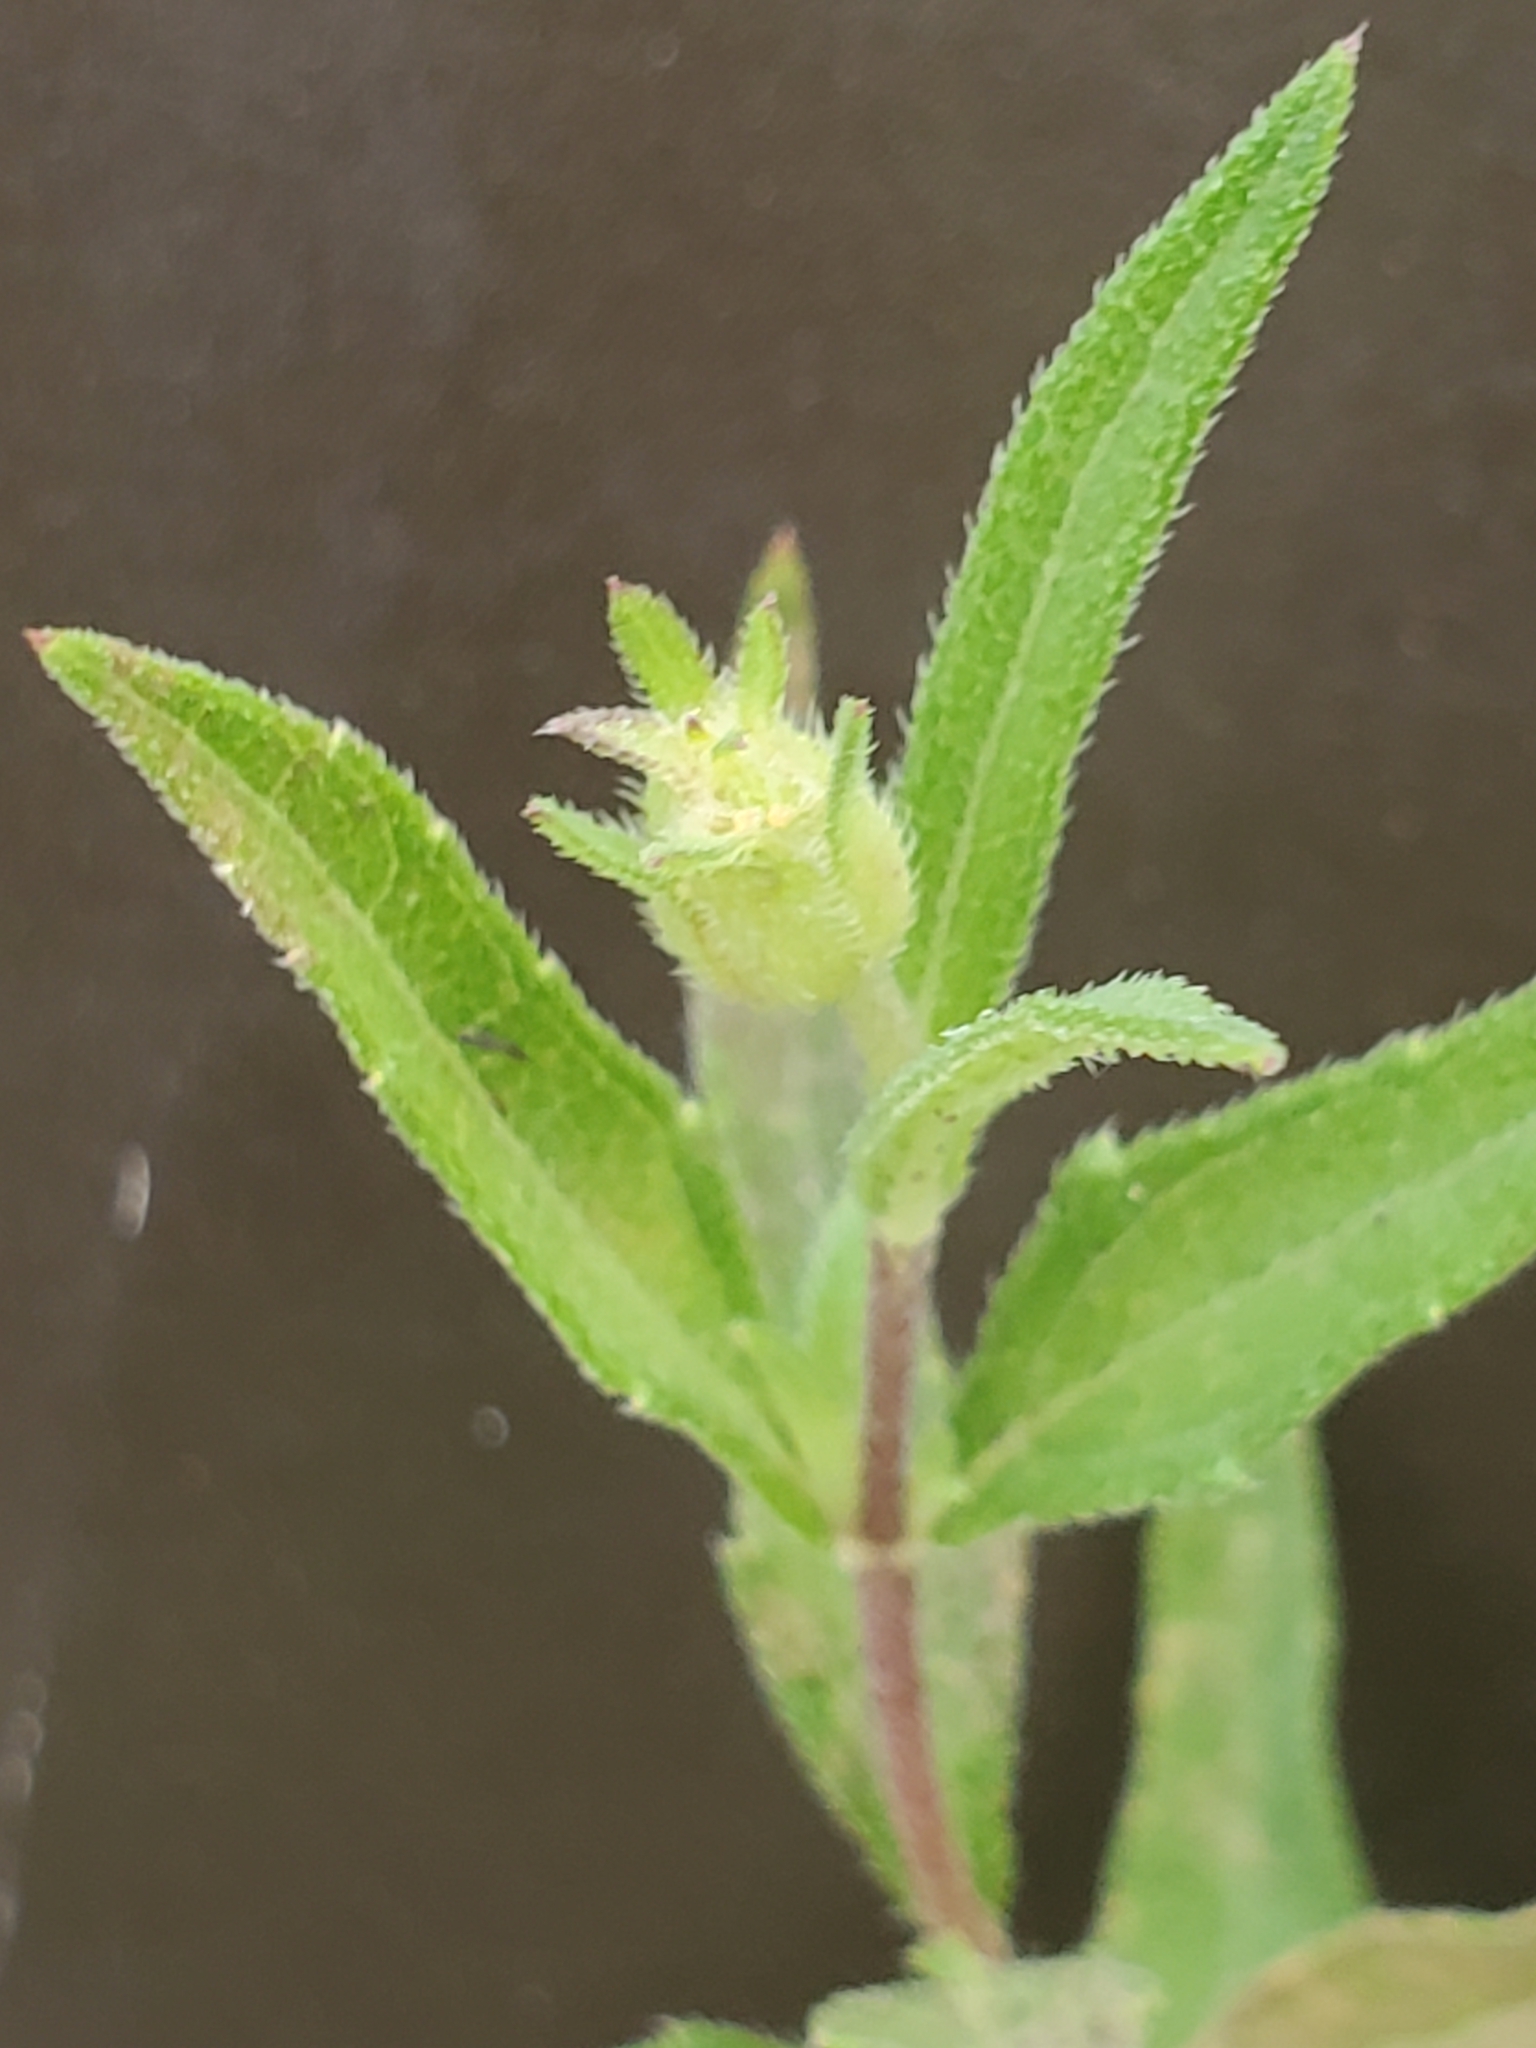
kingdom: Plantae
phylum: Tracheophyta
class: Magnoliopsida
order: Asterales
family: Asteraceae
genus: Wedelia
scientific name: Wedelia acapulcensis
